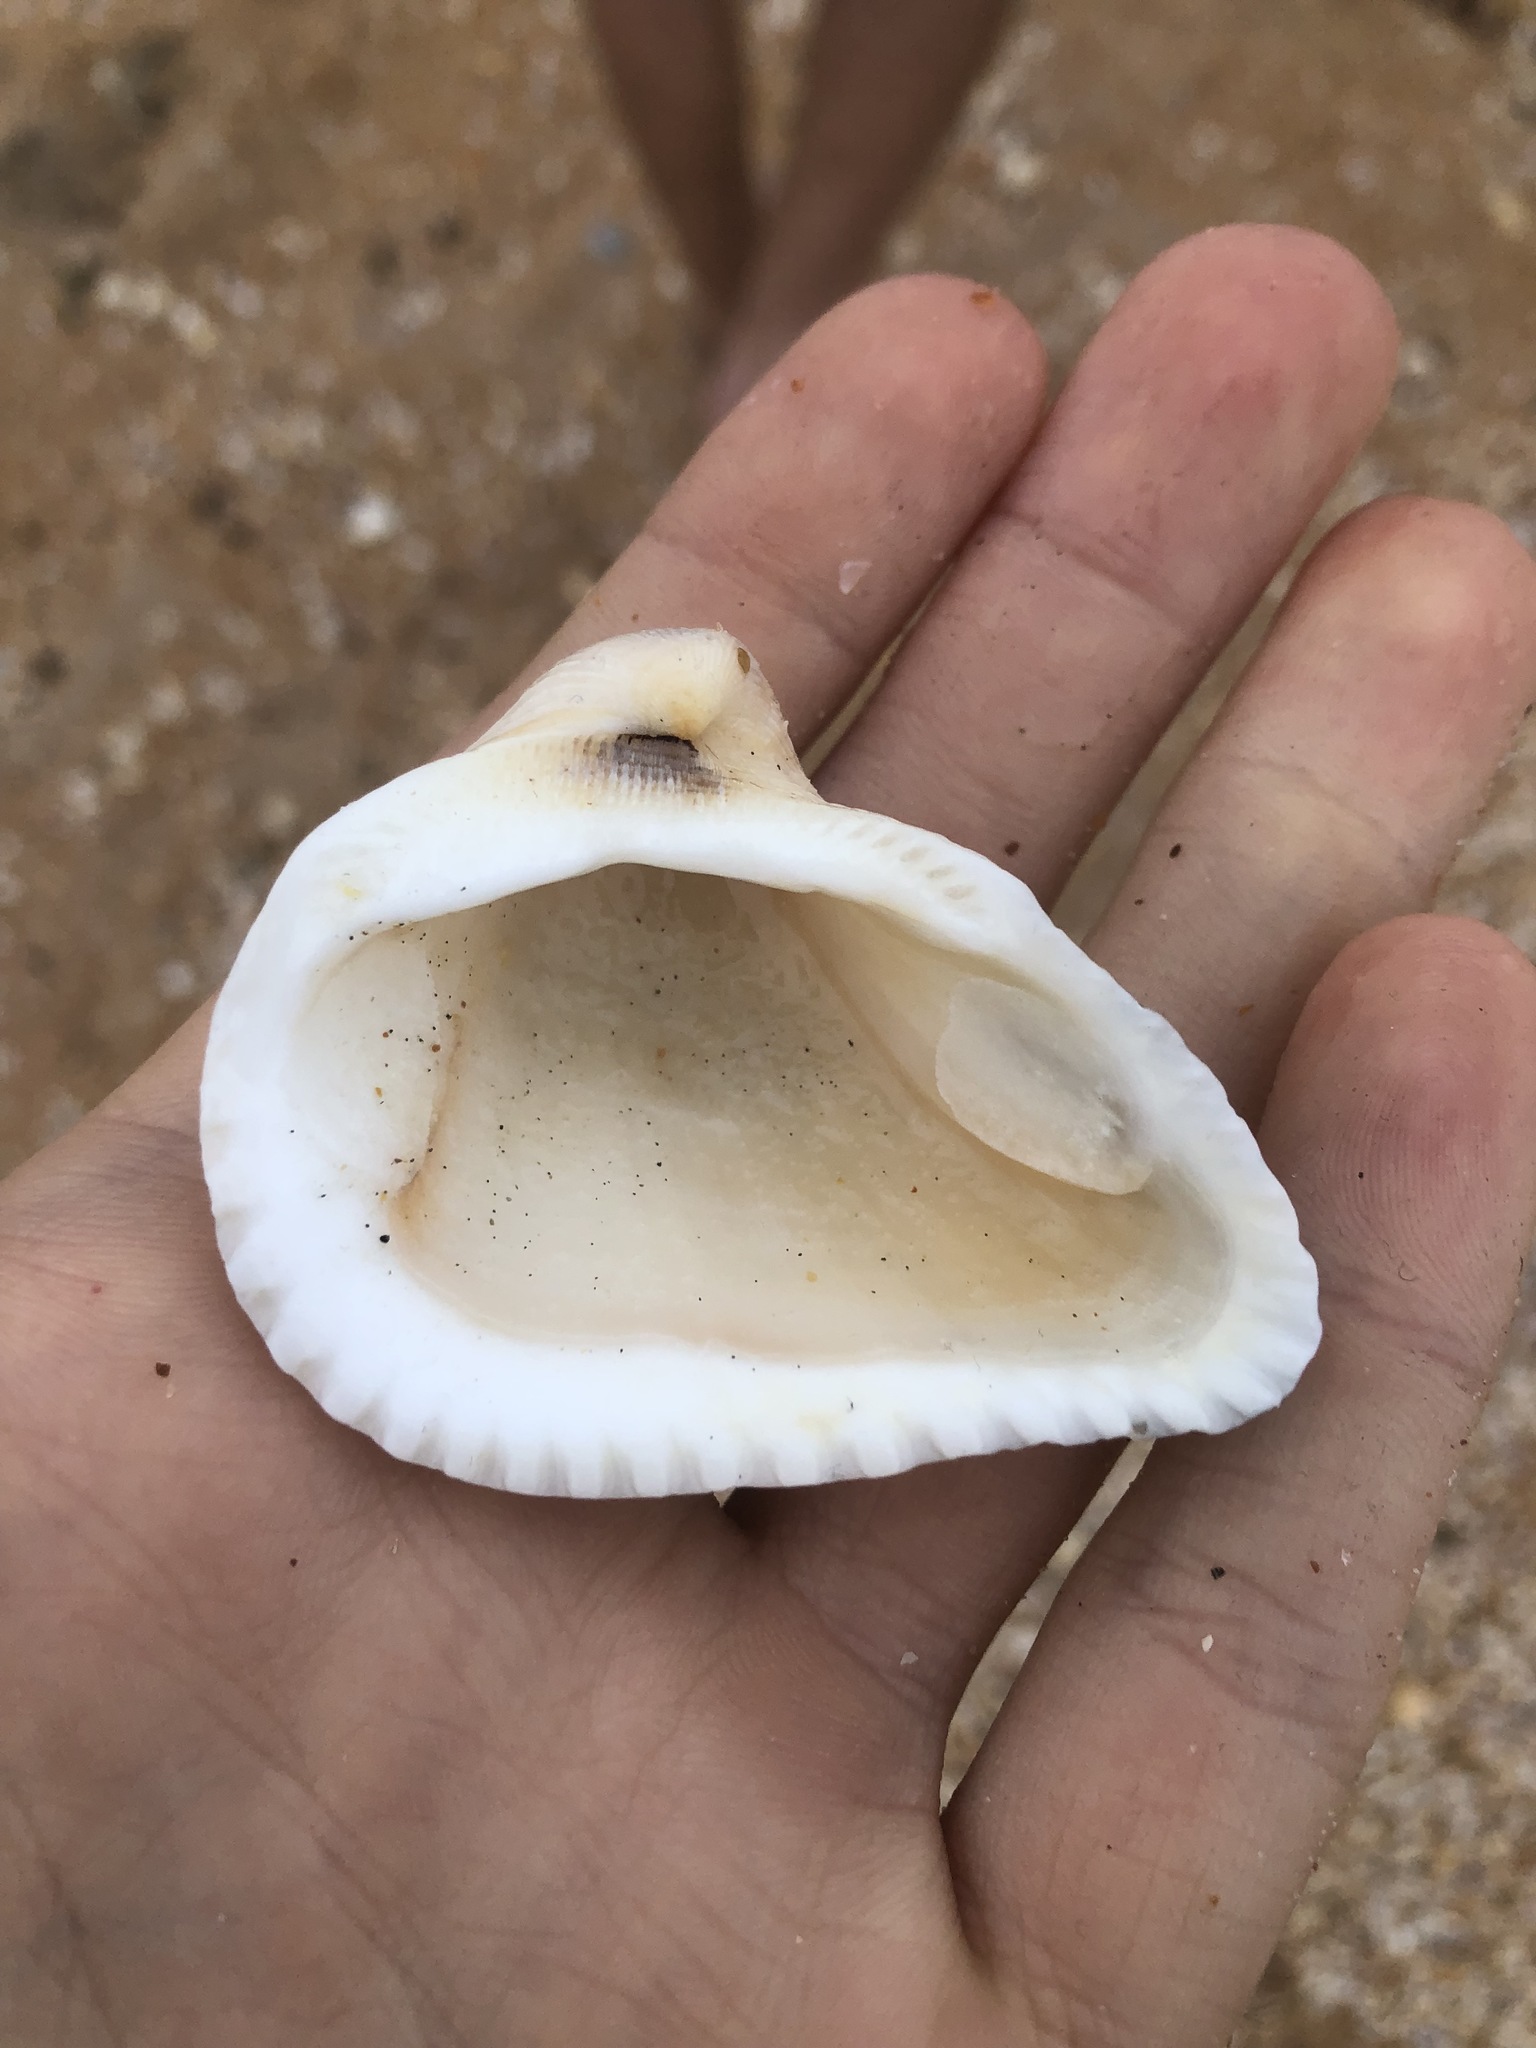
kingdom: Animalia
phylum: Mollusca
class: Bivalvia
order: Arcida
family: Noetiidae
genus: Noetia
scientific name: Noetia ponderosa
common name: Ponderous ark
